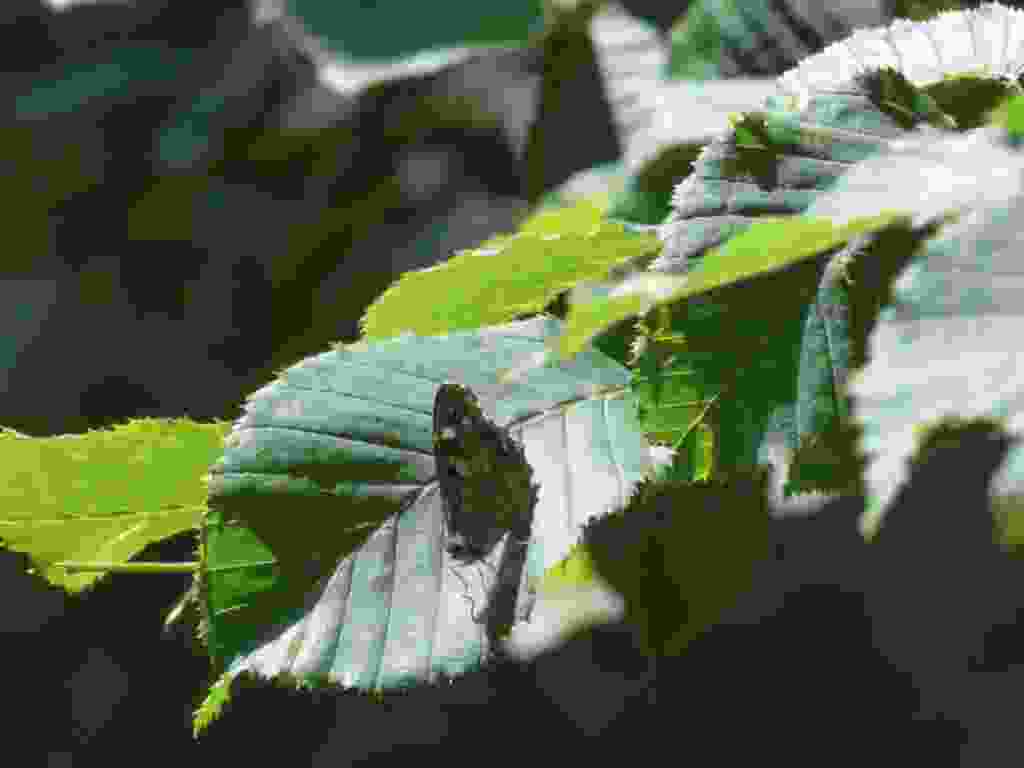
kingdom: Animalia
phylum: Arthropoda
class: Insecta
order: Lepidoptera
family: Nymphalidae
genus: Pararge
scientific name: Pararge aegeria
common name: Speckled wood
